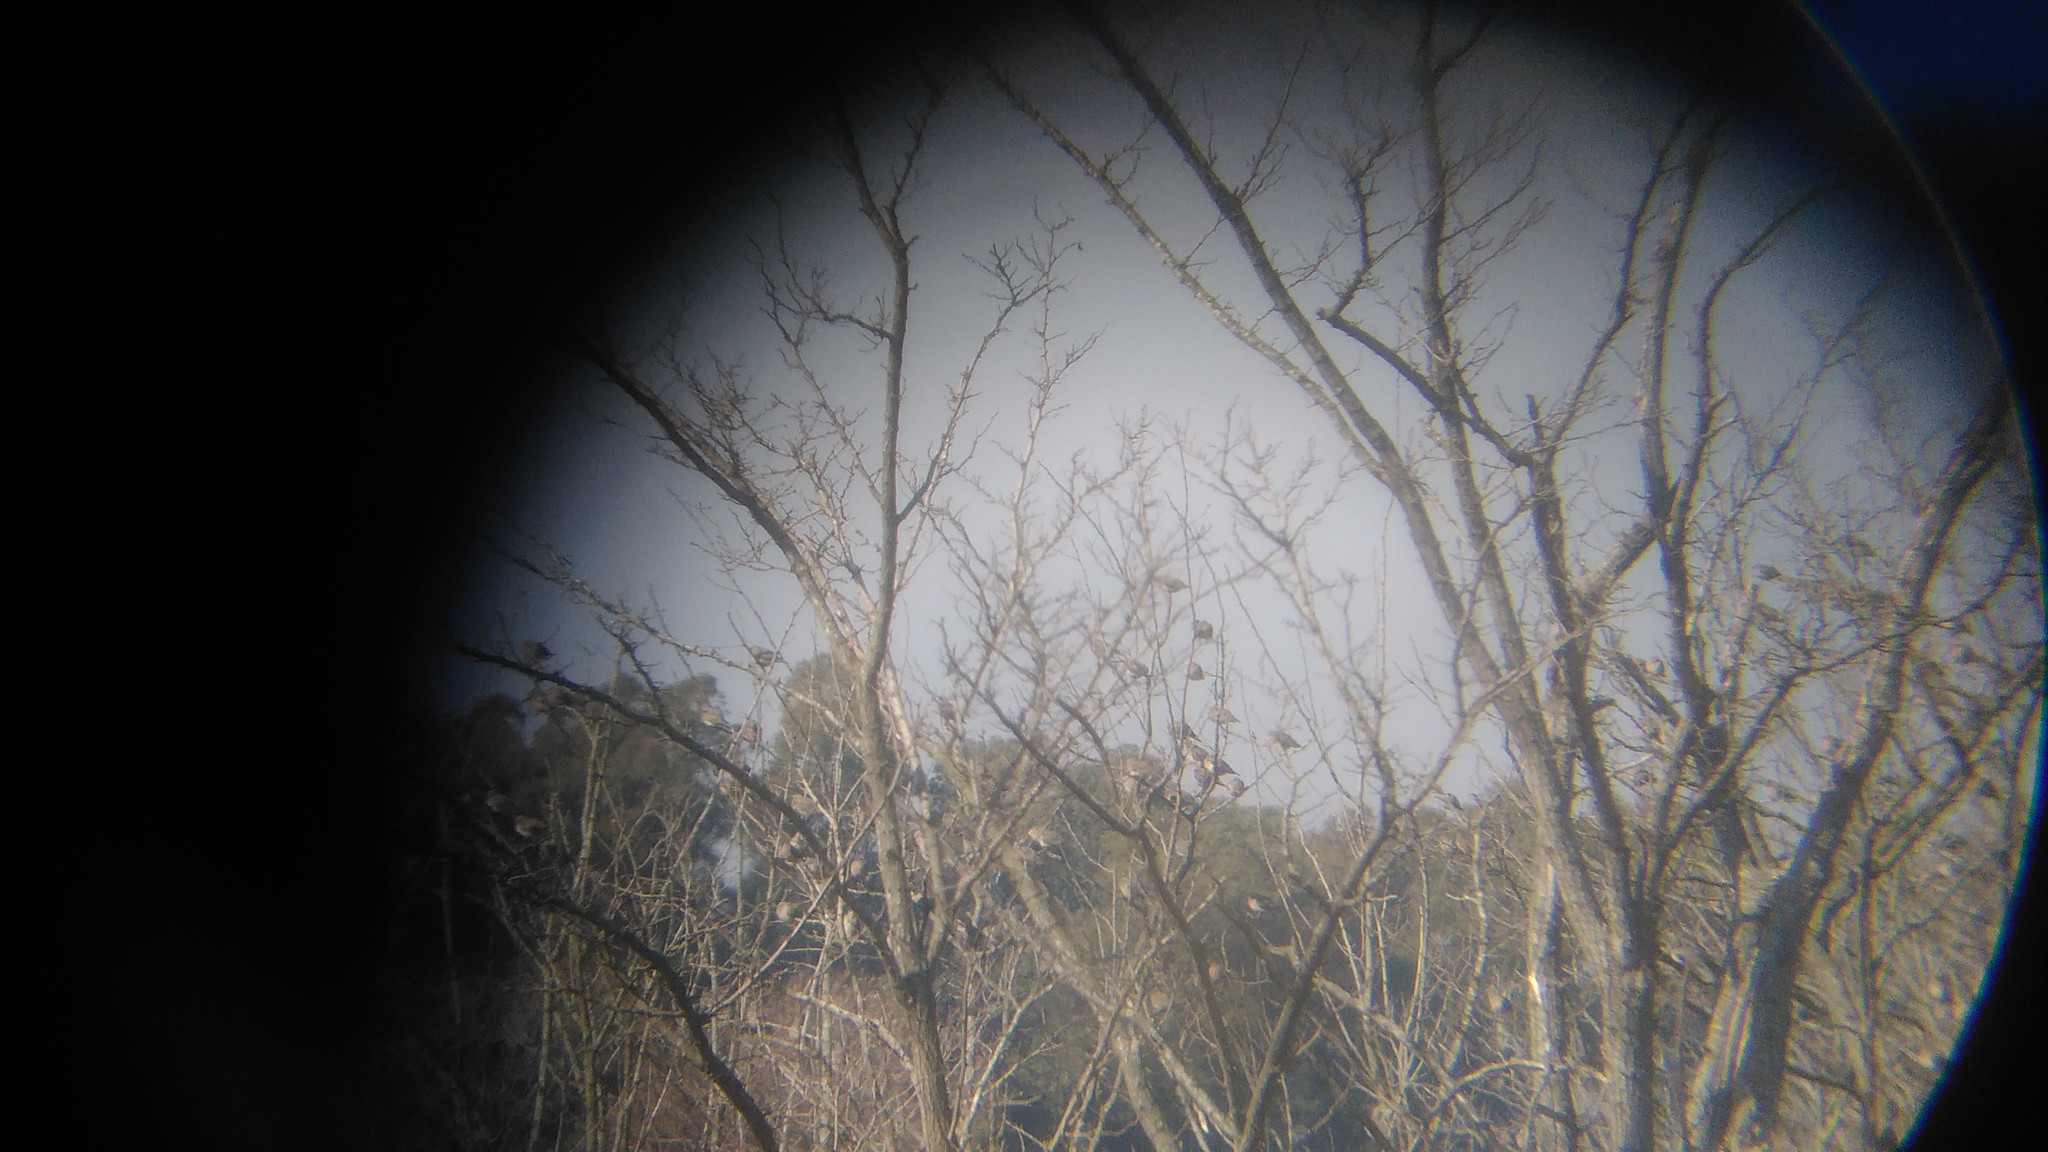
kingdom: Animalia
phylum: Chordata
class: Aves
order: Columbiformes
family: Columbidae
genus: Zenaida
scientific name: Zenaida auriculata
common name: Eared dove
